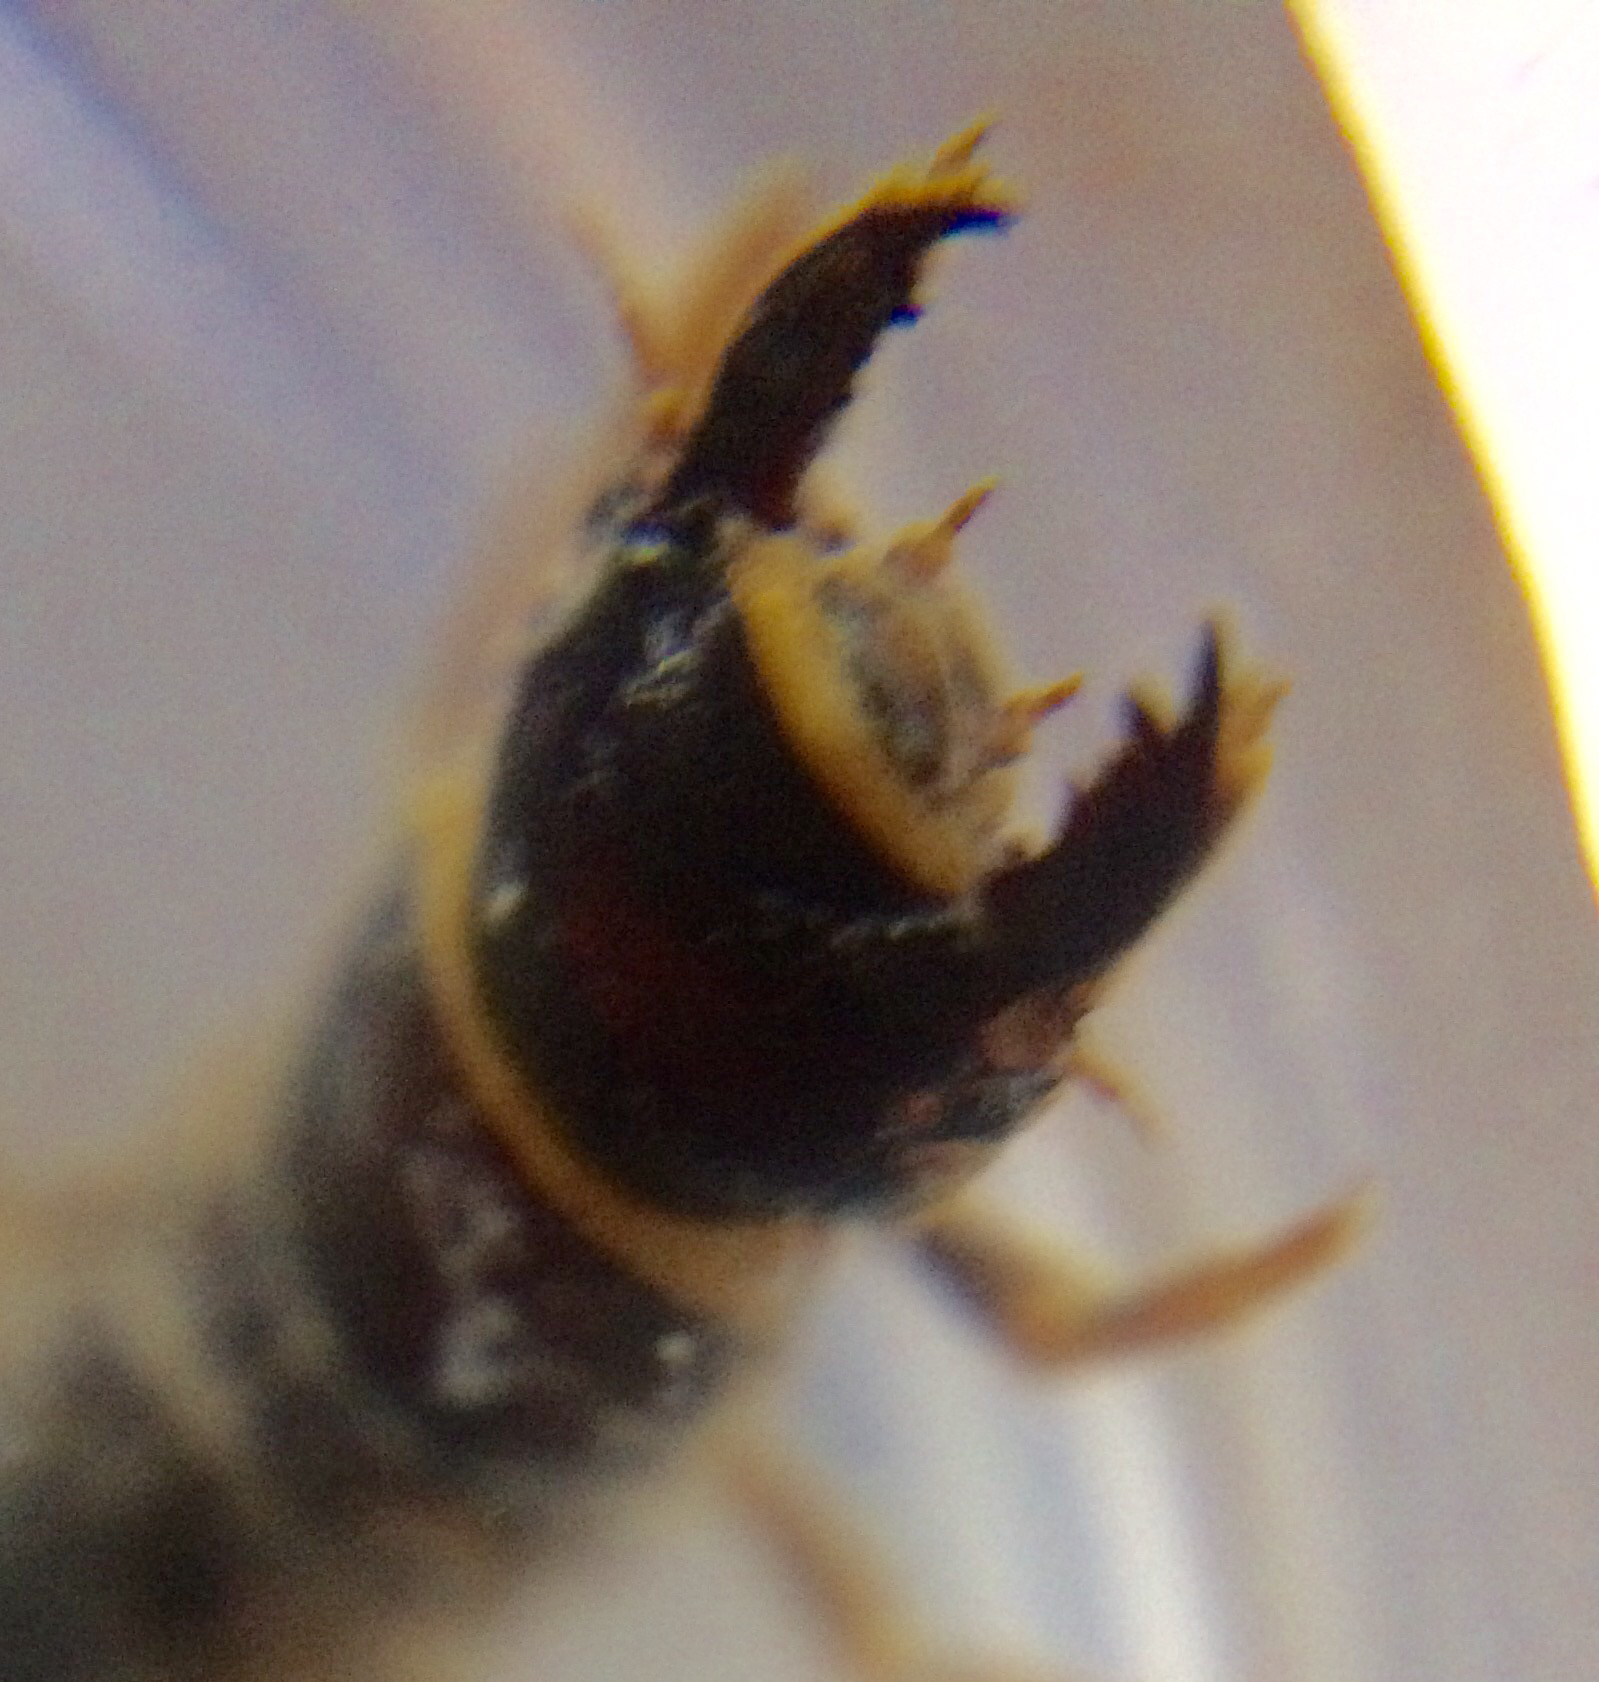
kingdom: Animalia
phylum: Arthropoda
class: Insecta
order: Megaloptera
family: Corydalidae
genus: Archichauliodes
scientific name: Archichauliodes diversus
